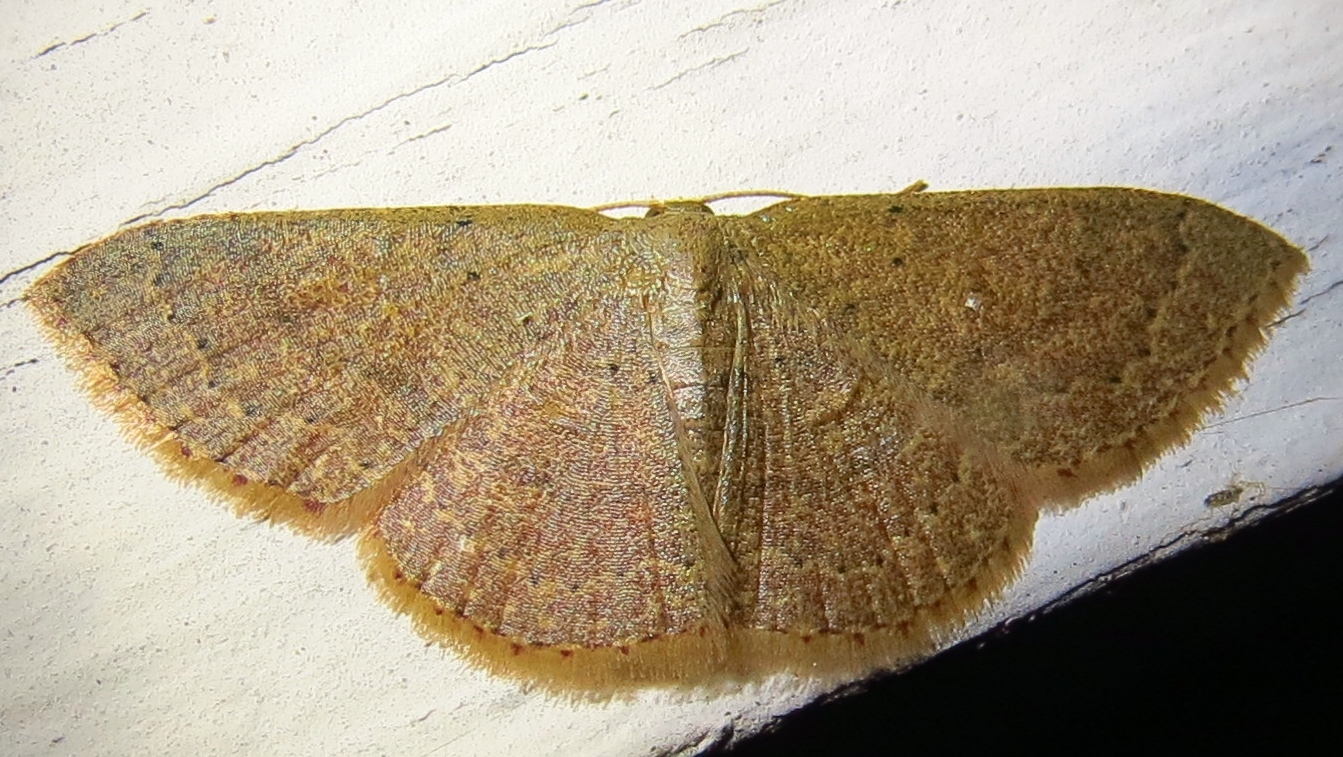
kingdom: Animalia
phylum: Arthropoda
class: Insecta
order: Lepidoptera
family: Geometridae
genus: Pleuroprucha
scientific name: Pleuroprucha insulsaria
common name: Common tan wave
